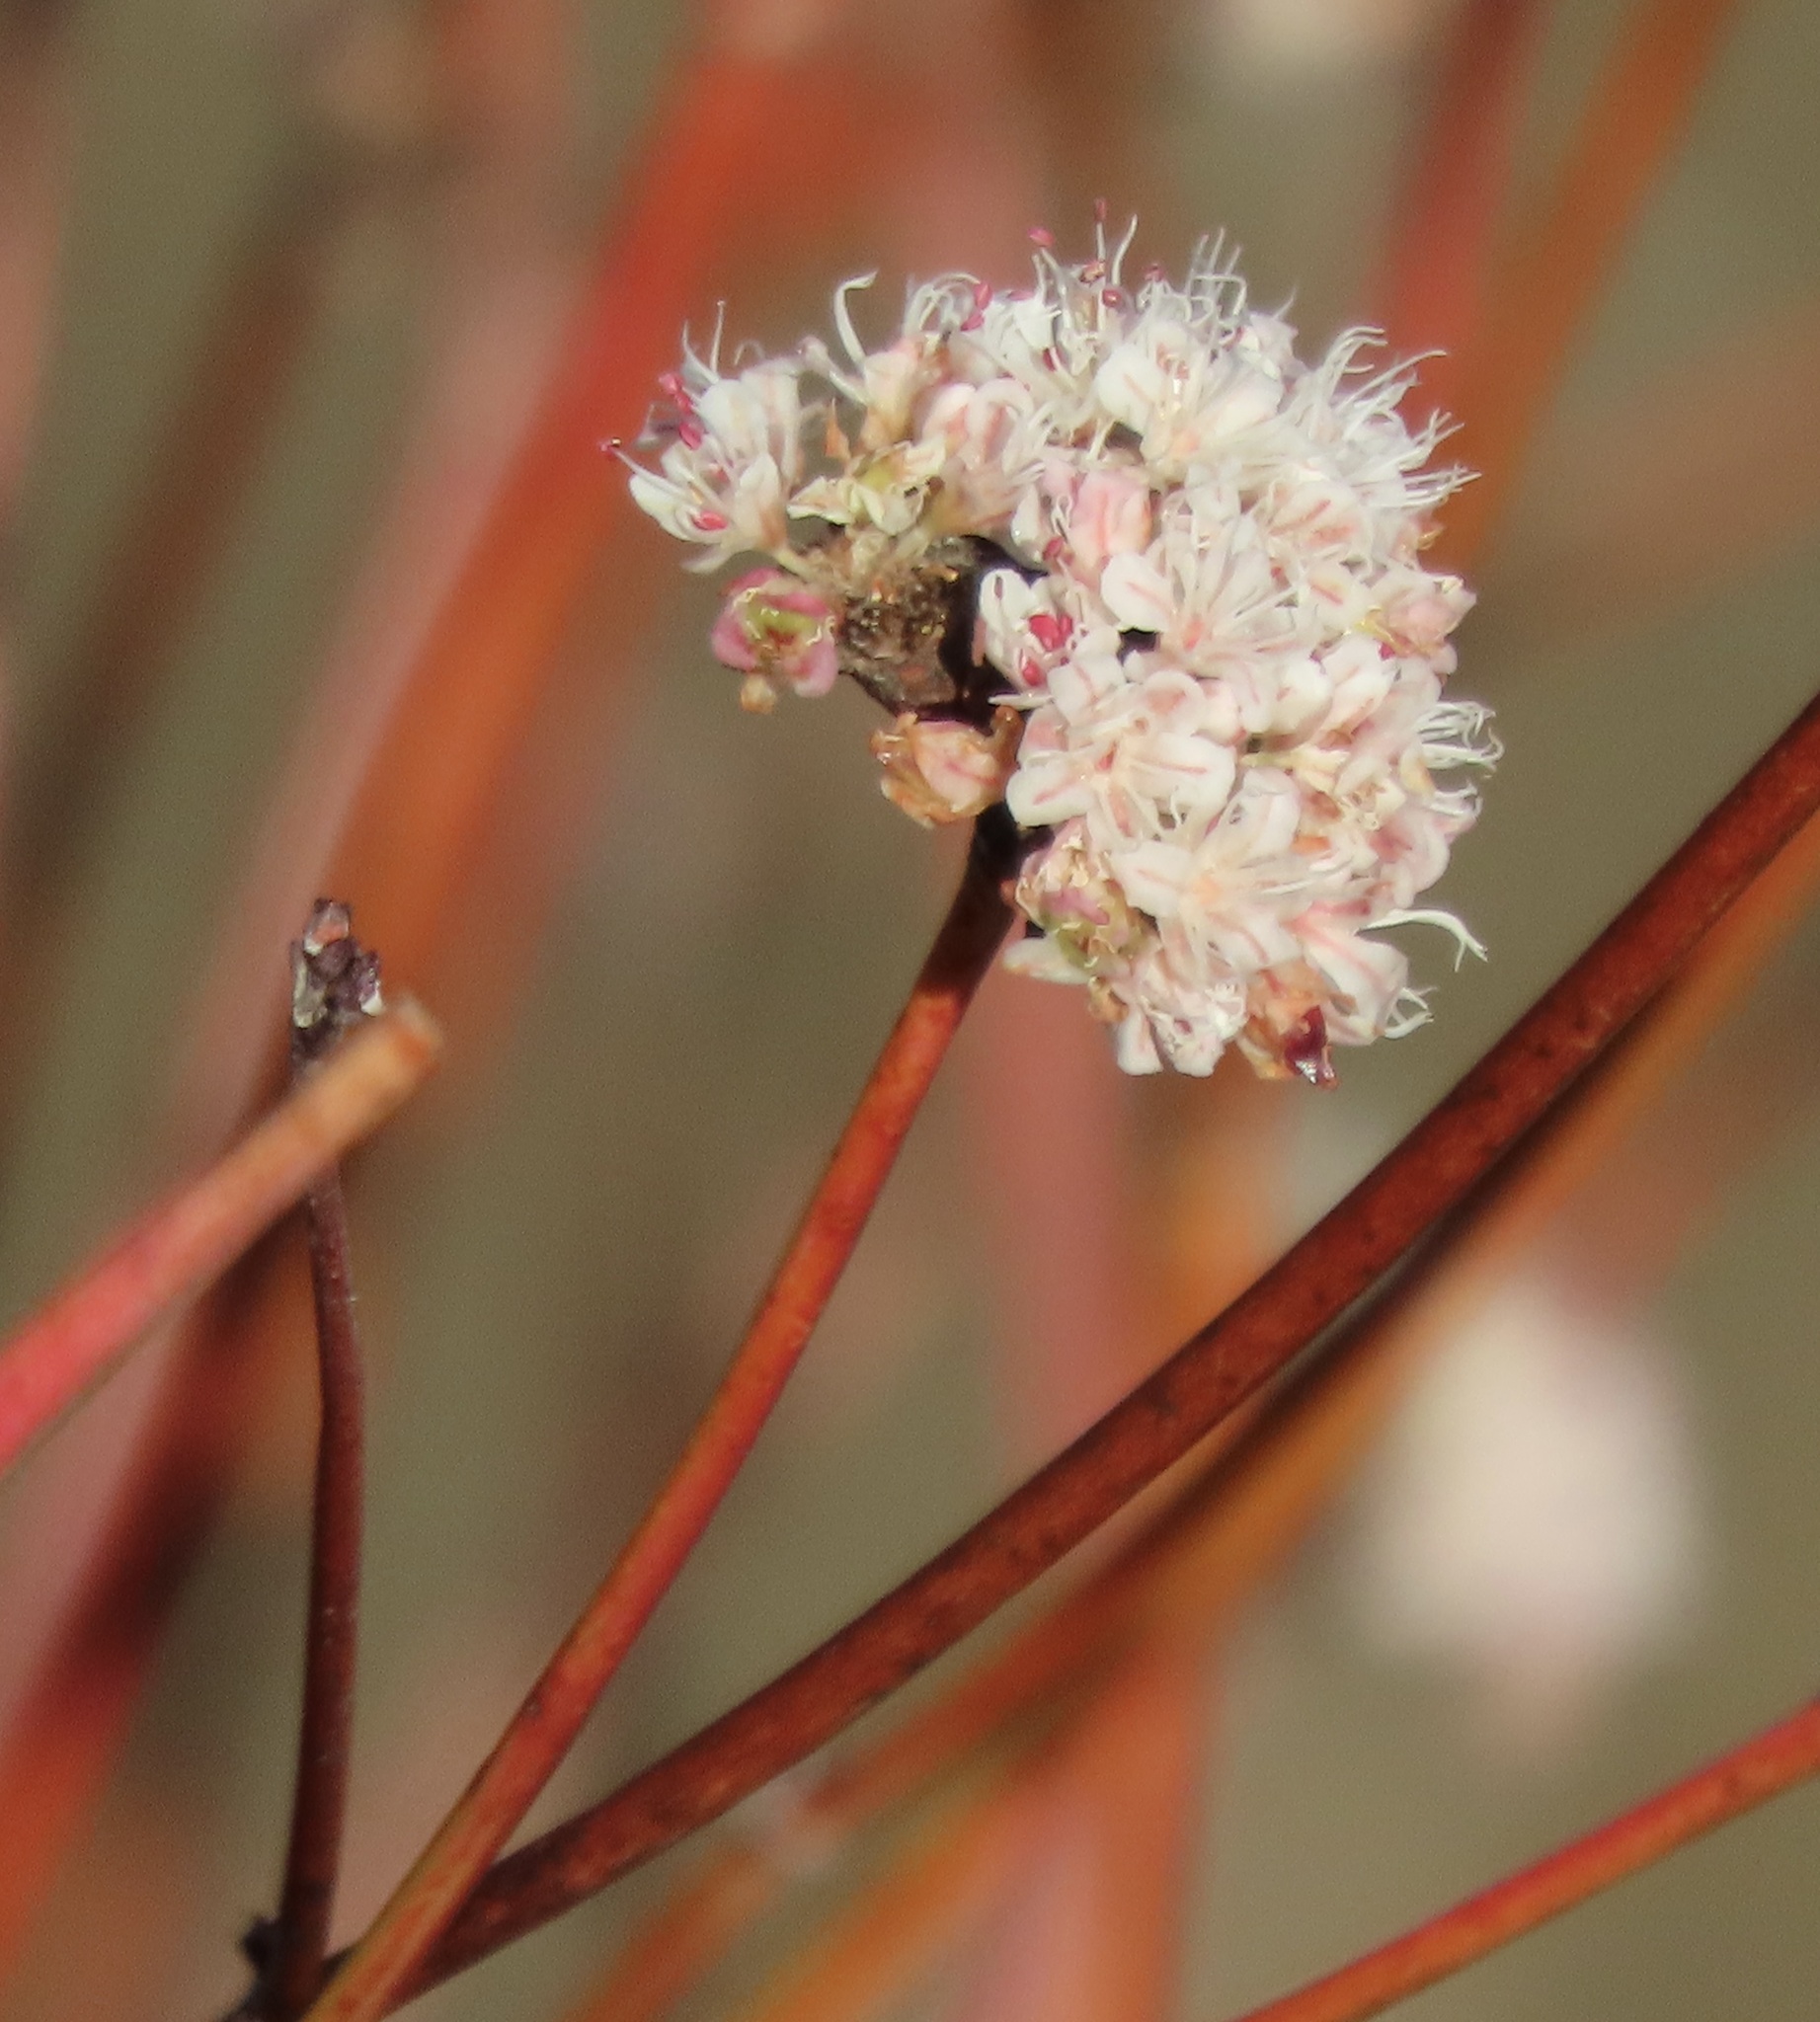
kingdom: Plantae
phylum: Tracheophyta
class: Magnoliopsida
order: Caryophyllales
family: Polygonaceae
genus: Eriogonum
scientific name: Eriogonum nudum
